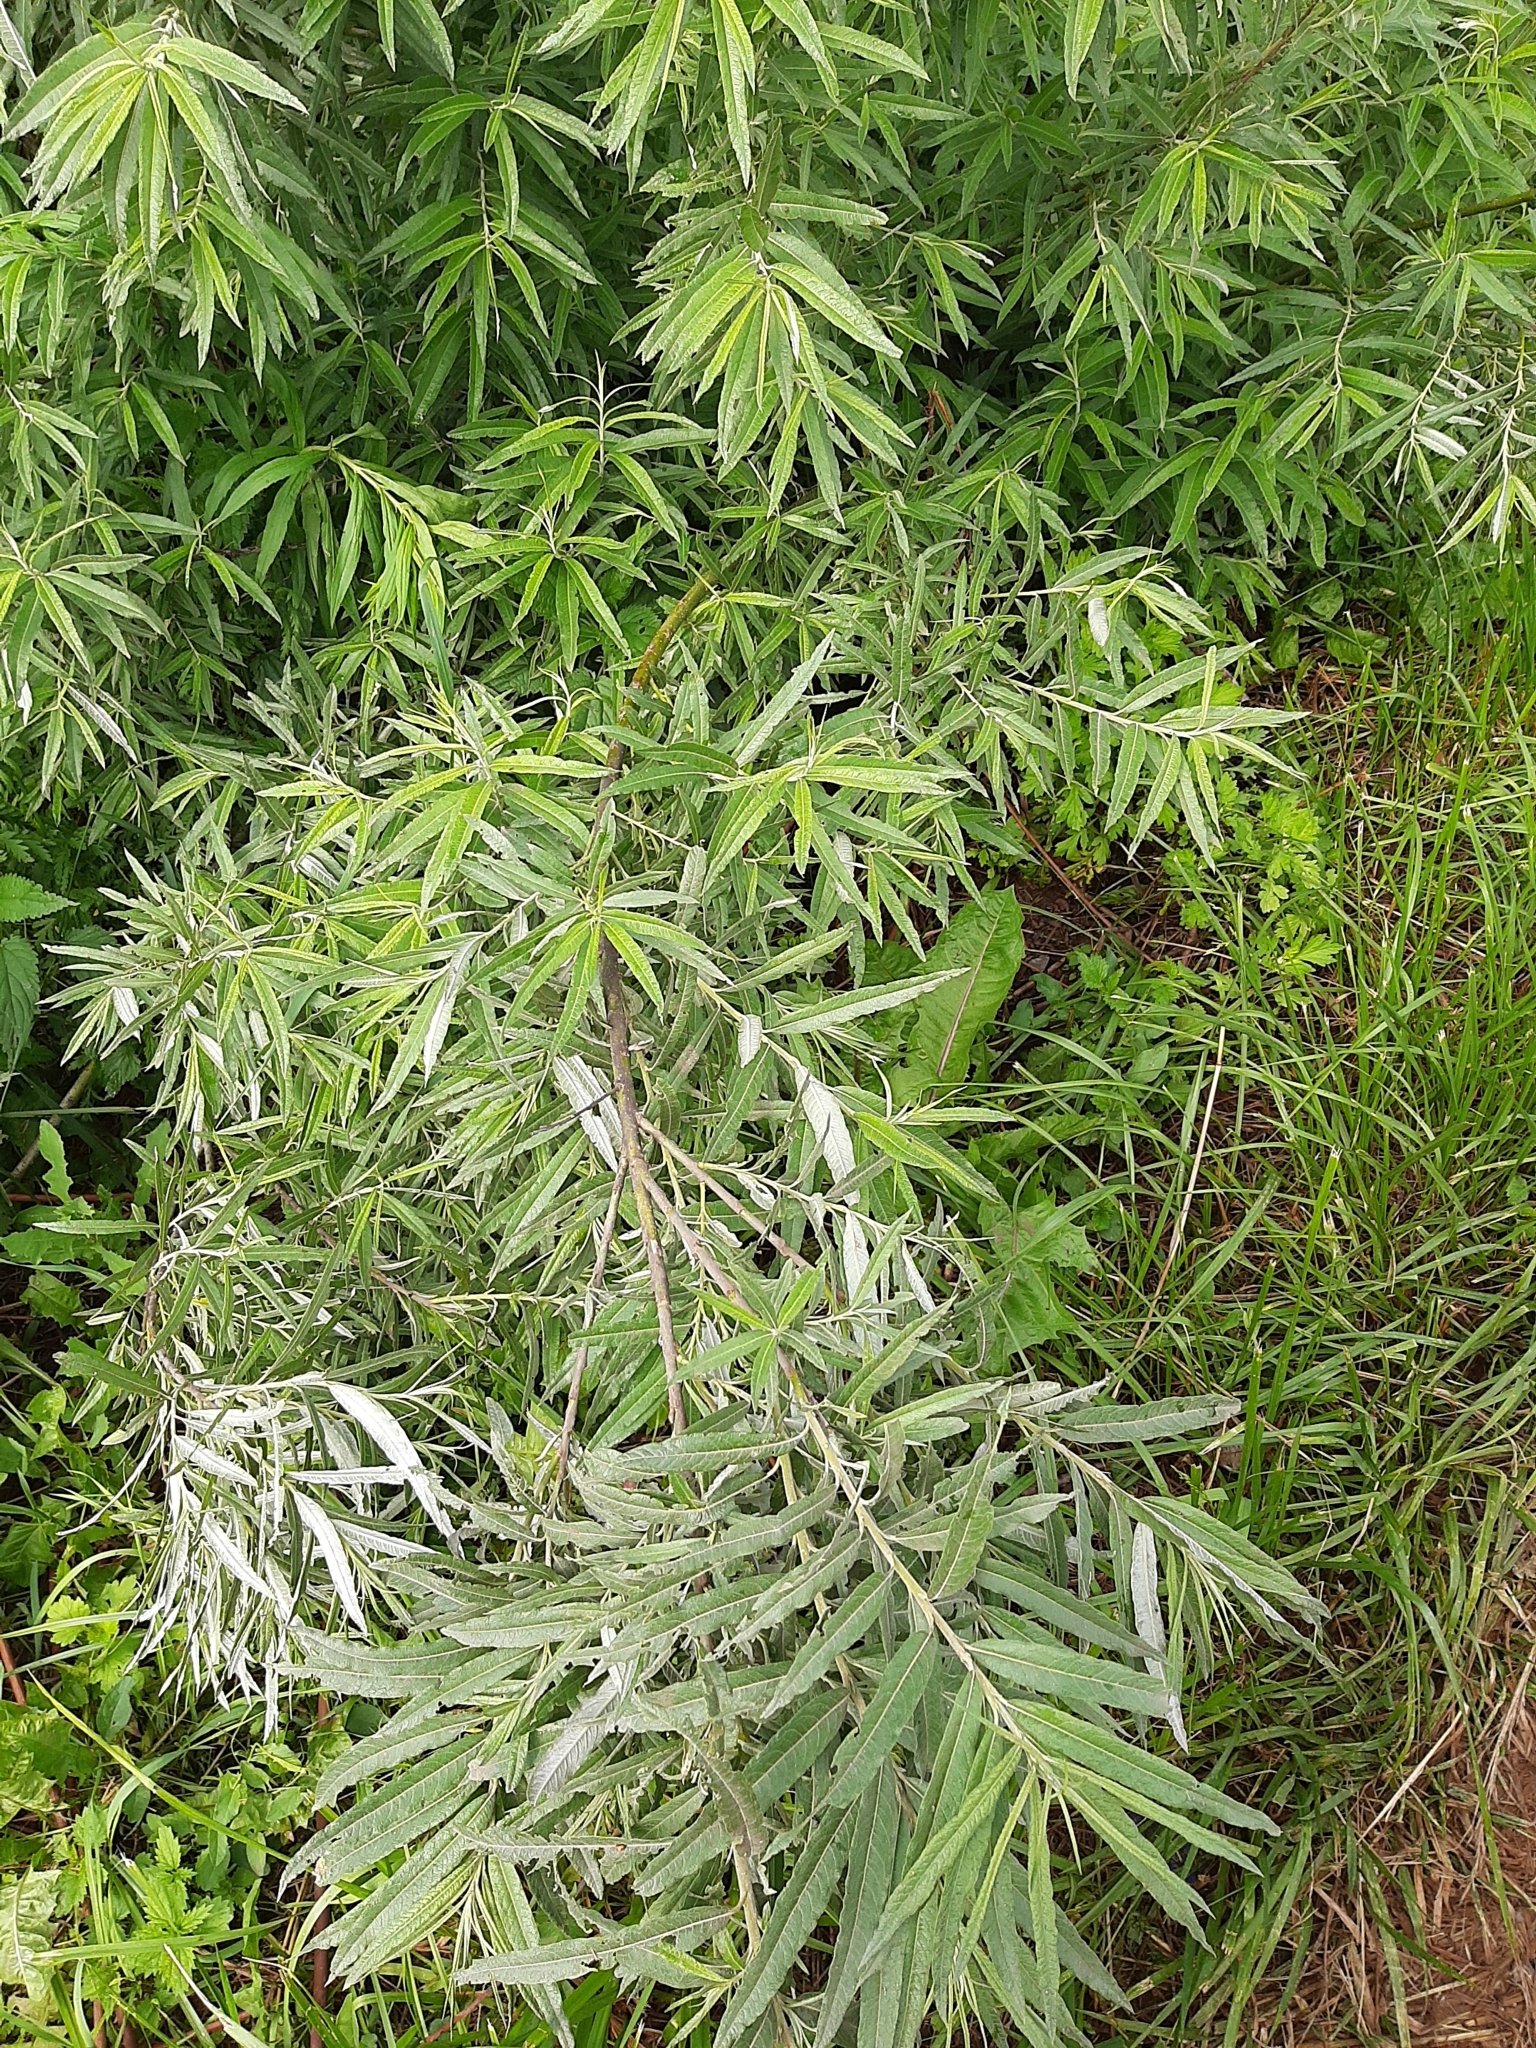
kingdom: Plantae
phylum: Tracheophyta
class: Magnoliopsida
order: Malpighiales
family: Salicaceae
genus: Salix
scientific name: Salix gmelinii
